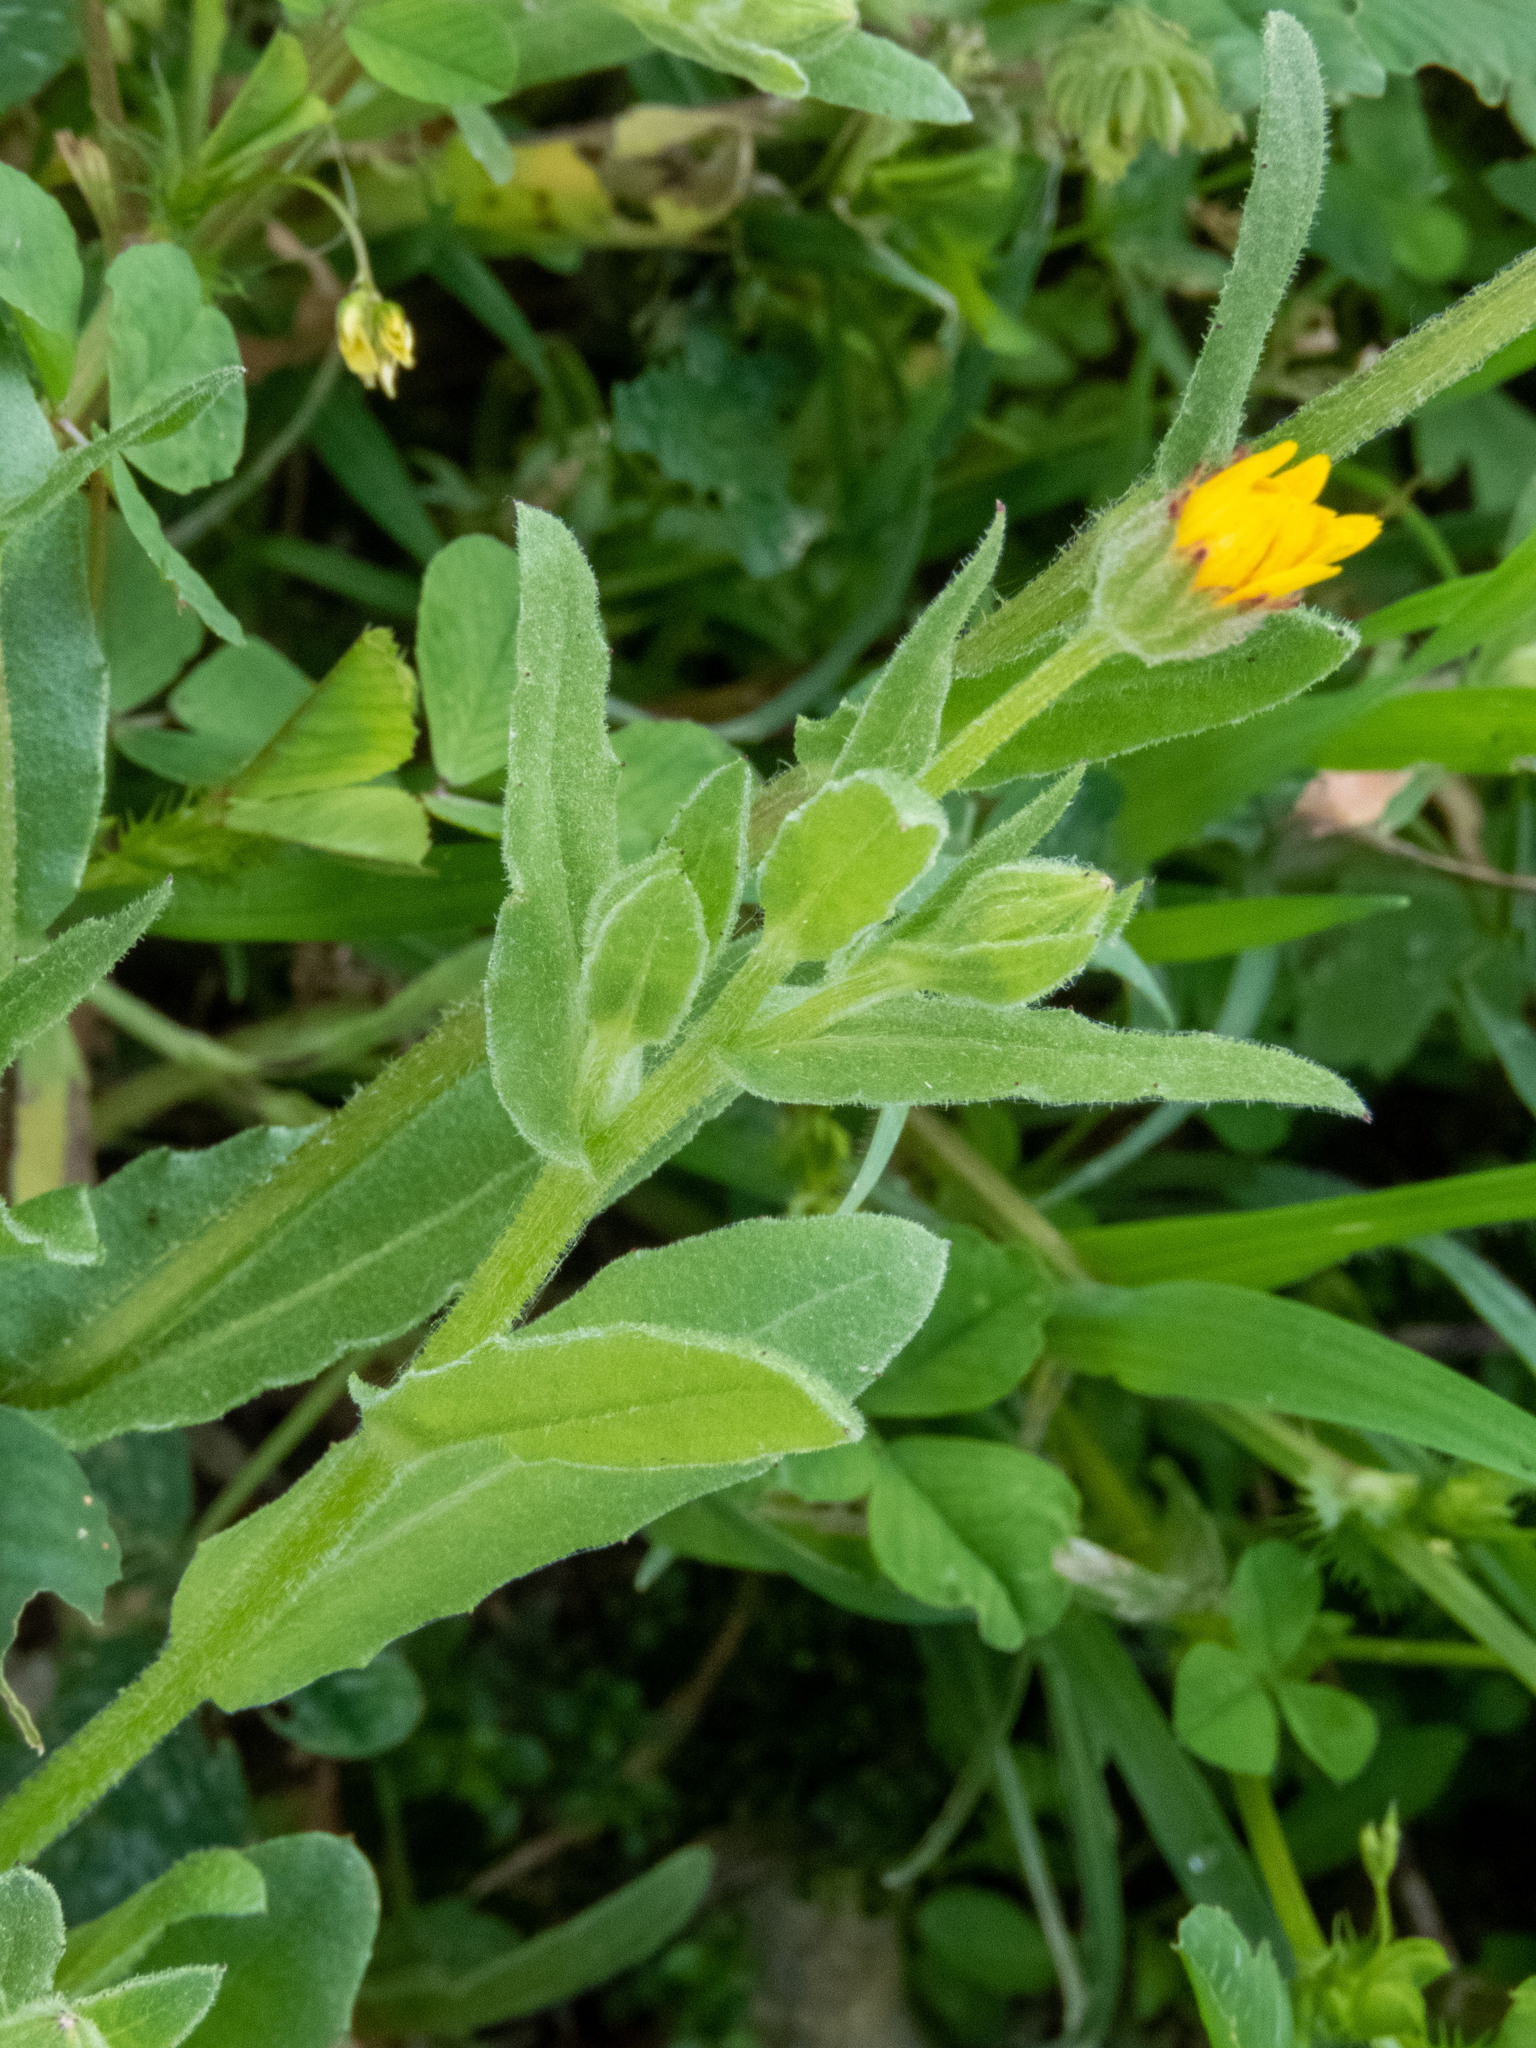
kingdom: Plantae
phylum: Tracheophyta
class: Magnoliopsida
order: Asterales
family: Asteraceae
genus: Calendula
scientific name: Calendula arvensis
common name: Field marigold
